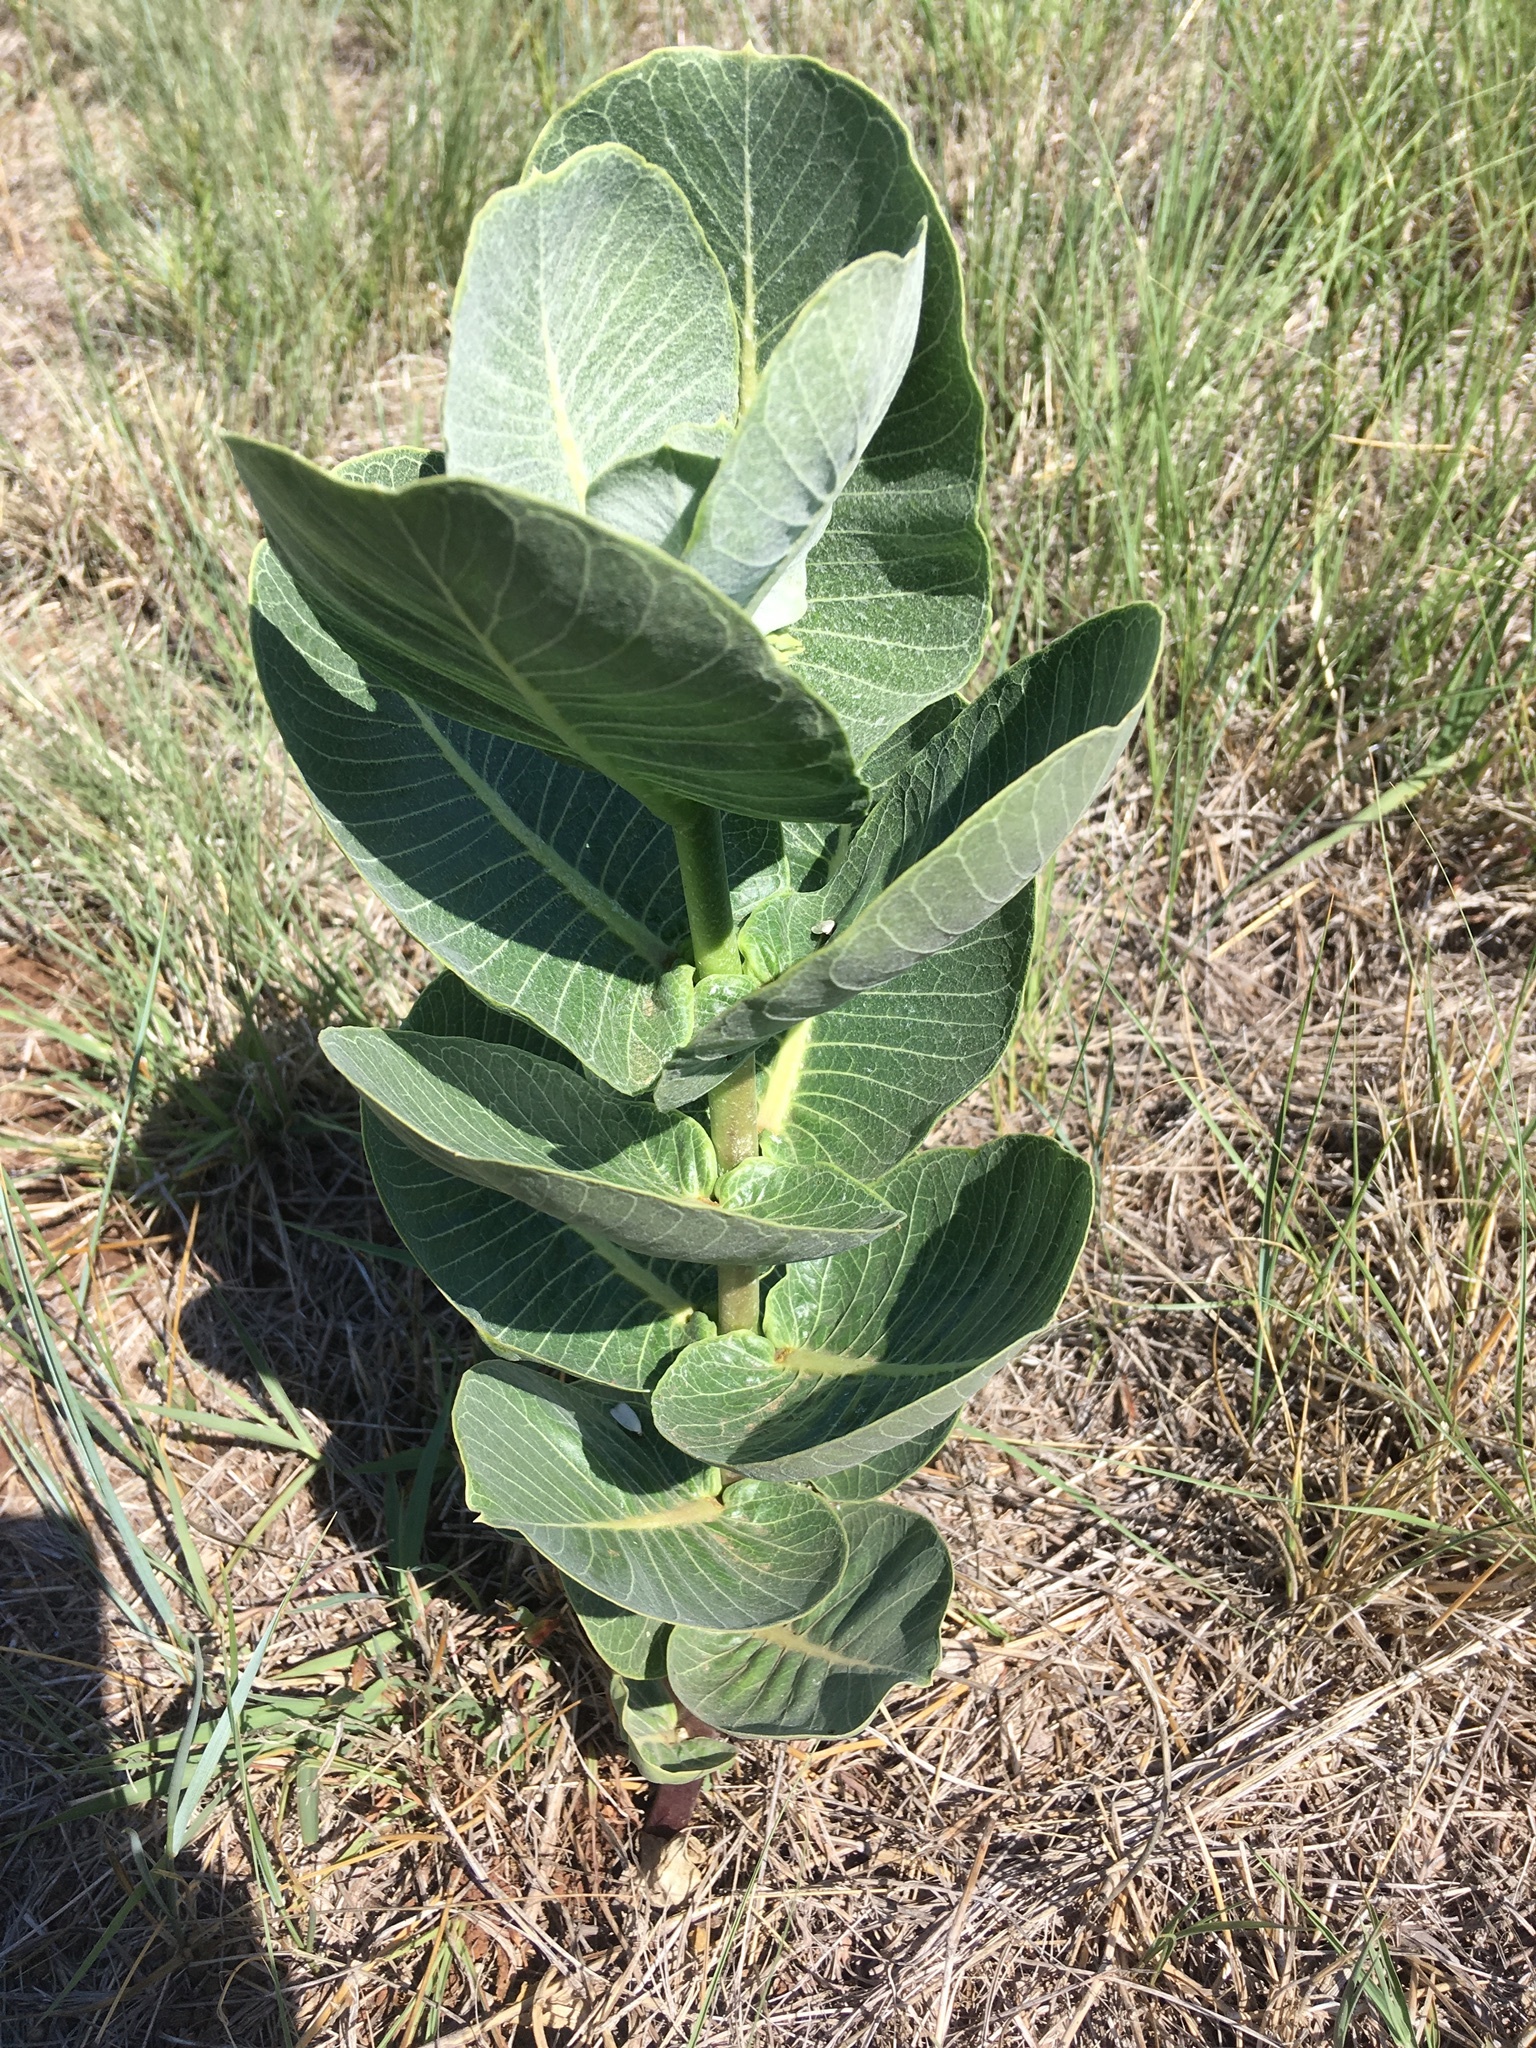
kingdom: Plantae
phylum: Tracheophyta
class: Magnoliopsida
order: Gentianales
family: Apocynaceae
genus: Asclepias
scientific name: Asclepias latifolia
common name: Broadleaf milkweed
